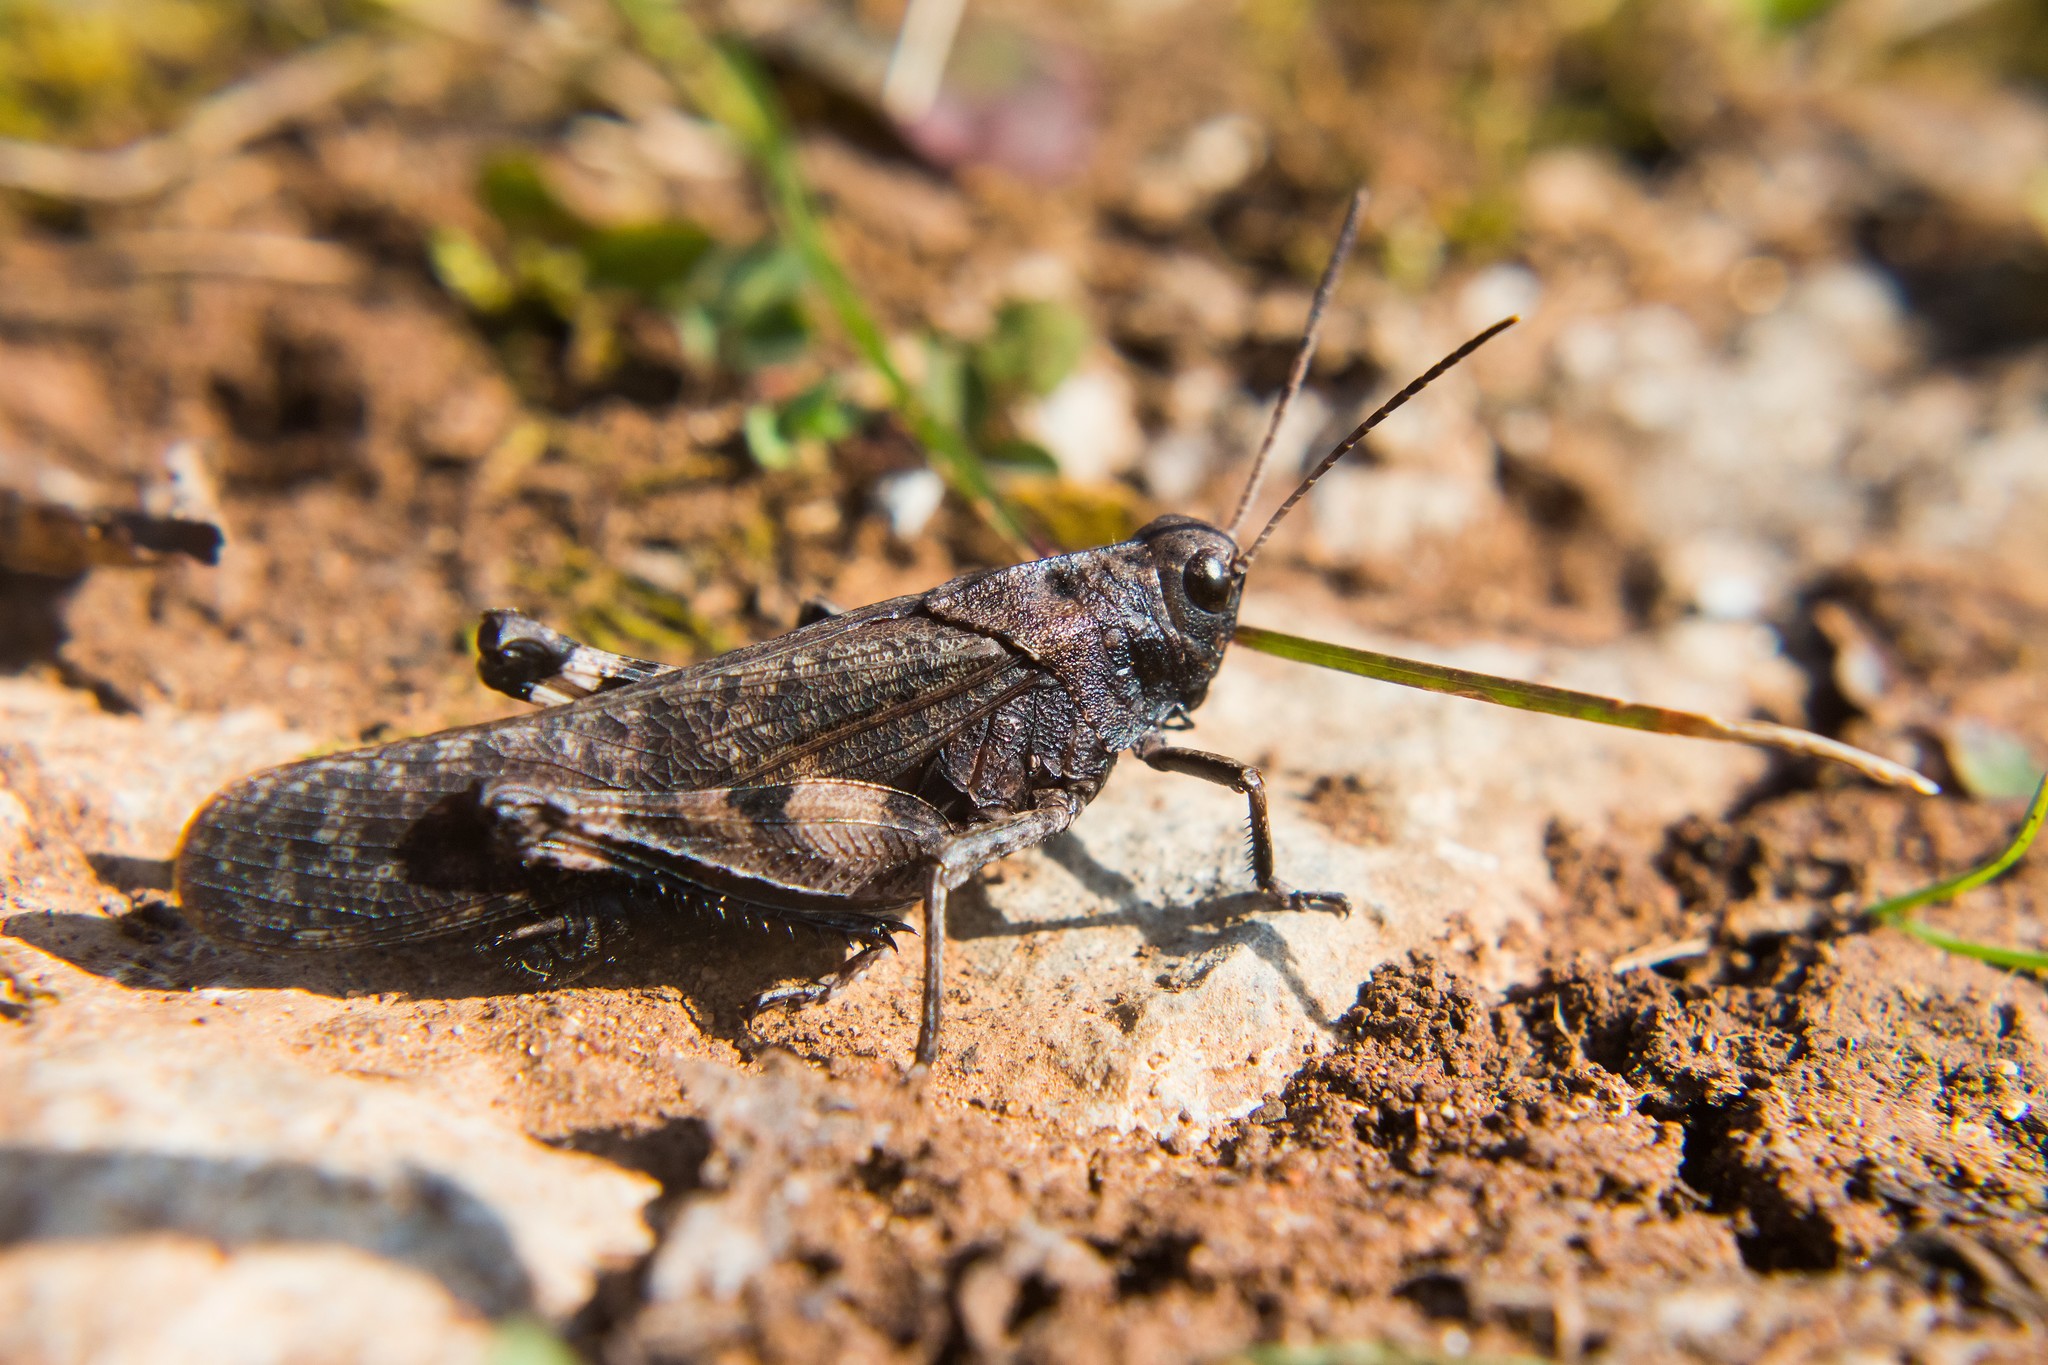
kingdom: Animalia
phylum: Arthropoda
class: Insecta
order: Orthoptera
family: Acrididae
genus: Psophus
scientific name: Psophus stridulus
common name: Rattle grasshopper
